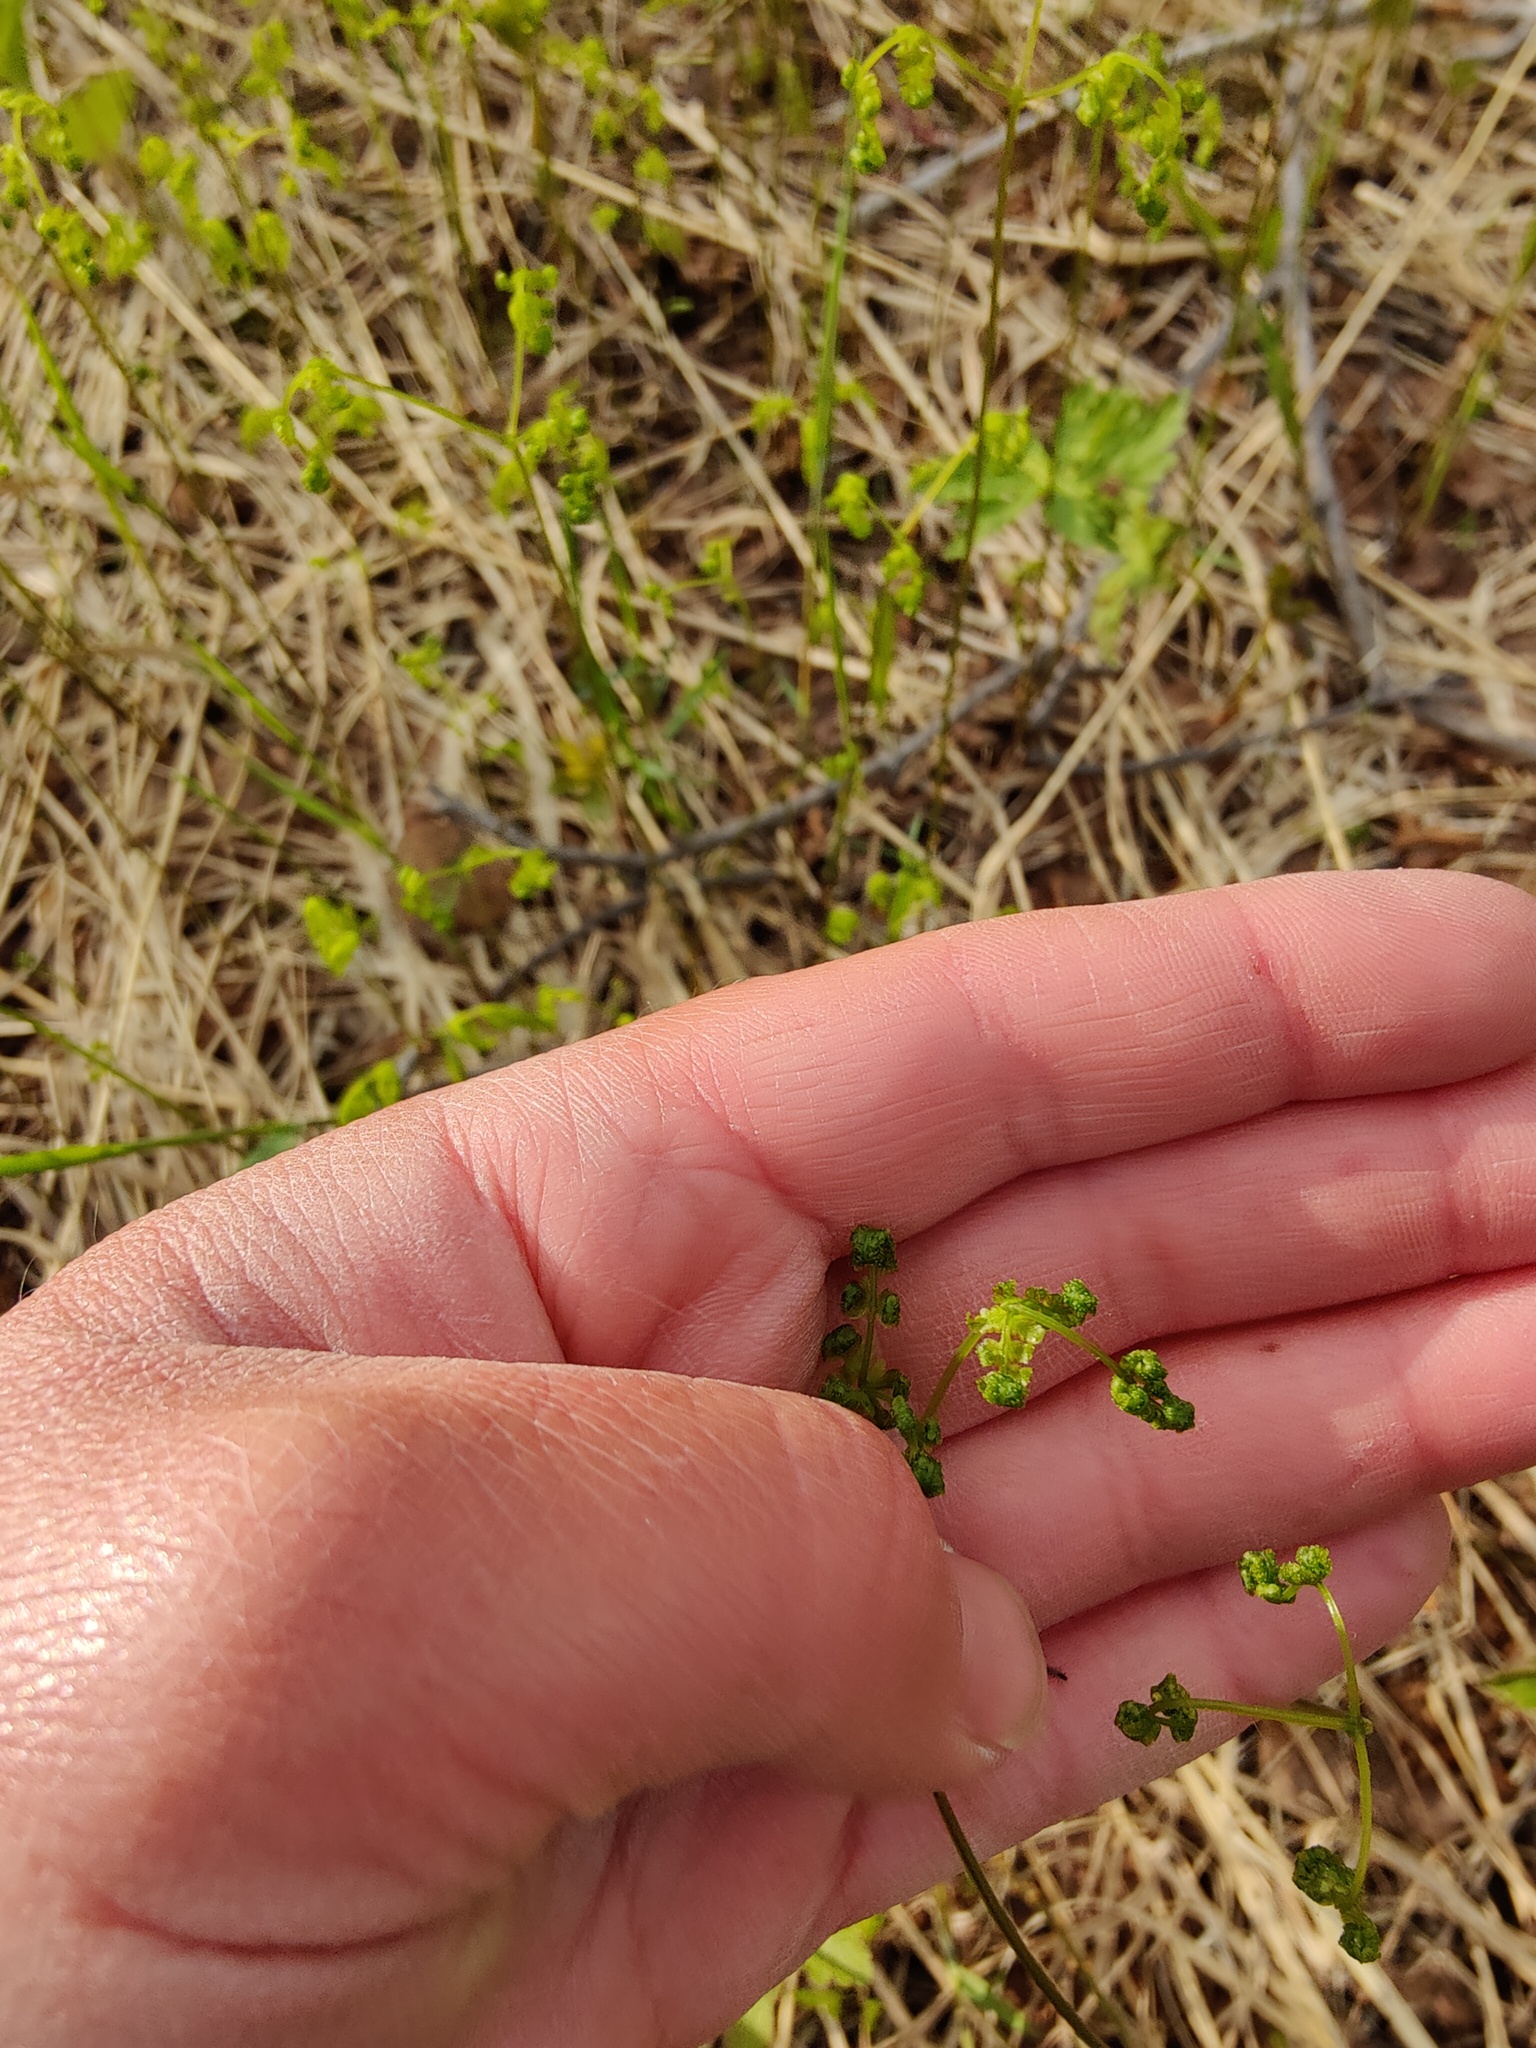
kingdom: Plantae
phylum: Tracheophyta
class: Polypodiopsida
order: Polypodiales
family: Cystopteridaceae
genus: Gymnocarpium
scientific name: Gymnocarpium dryopteris
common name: Oak fern
